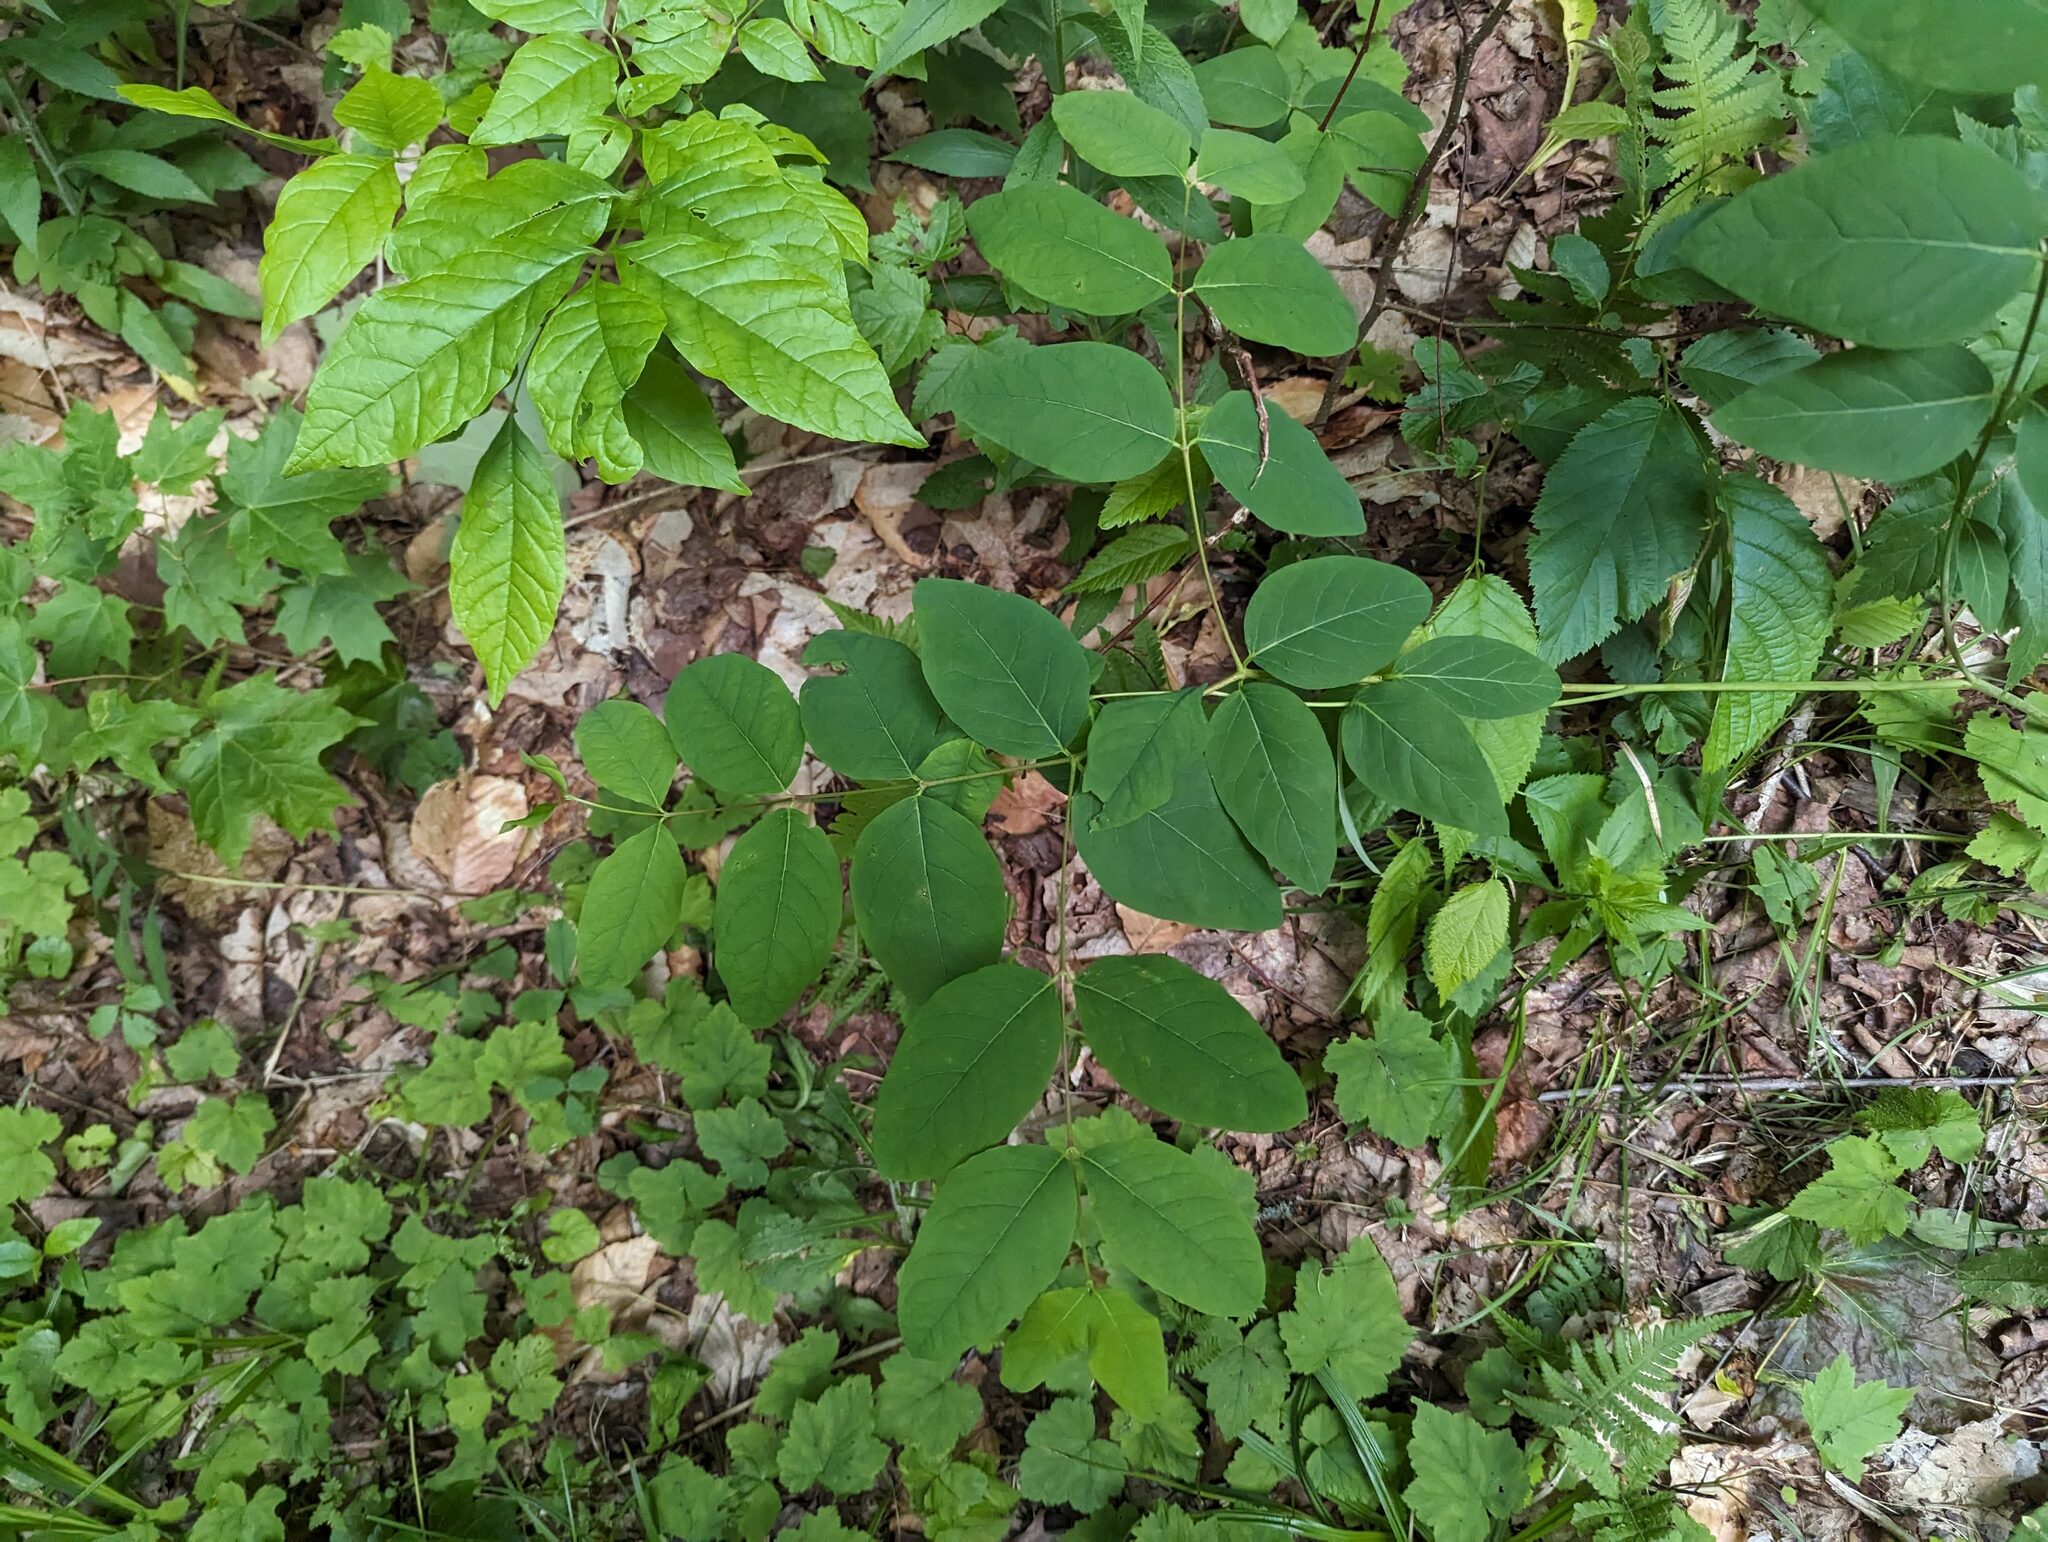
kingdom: Plantae
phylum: Tracheophyta
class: Magnoliopsida
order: Gentianales
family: Apocynaceae
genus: Apocynum
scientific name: Apocynum androsaemifolium
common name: Spreading dogbane
